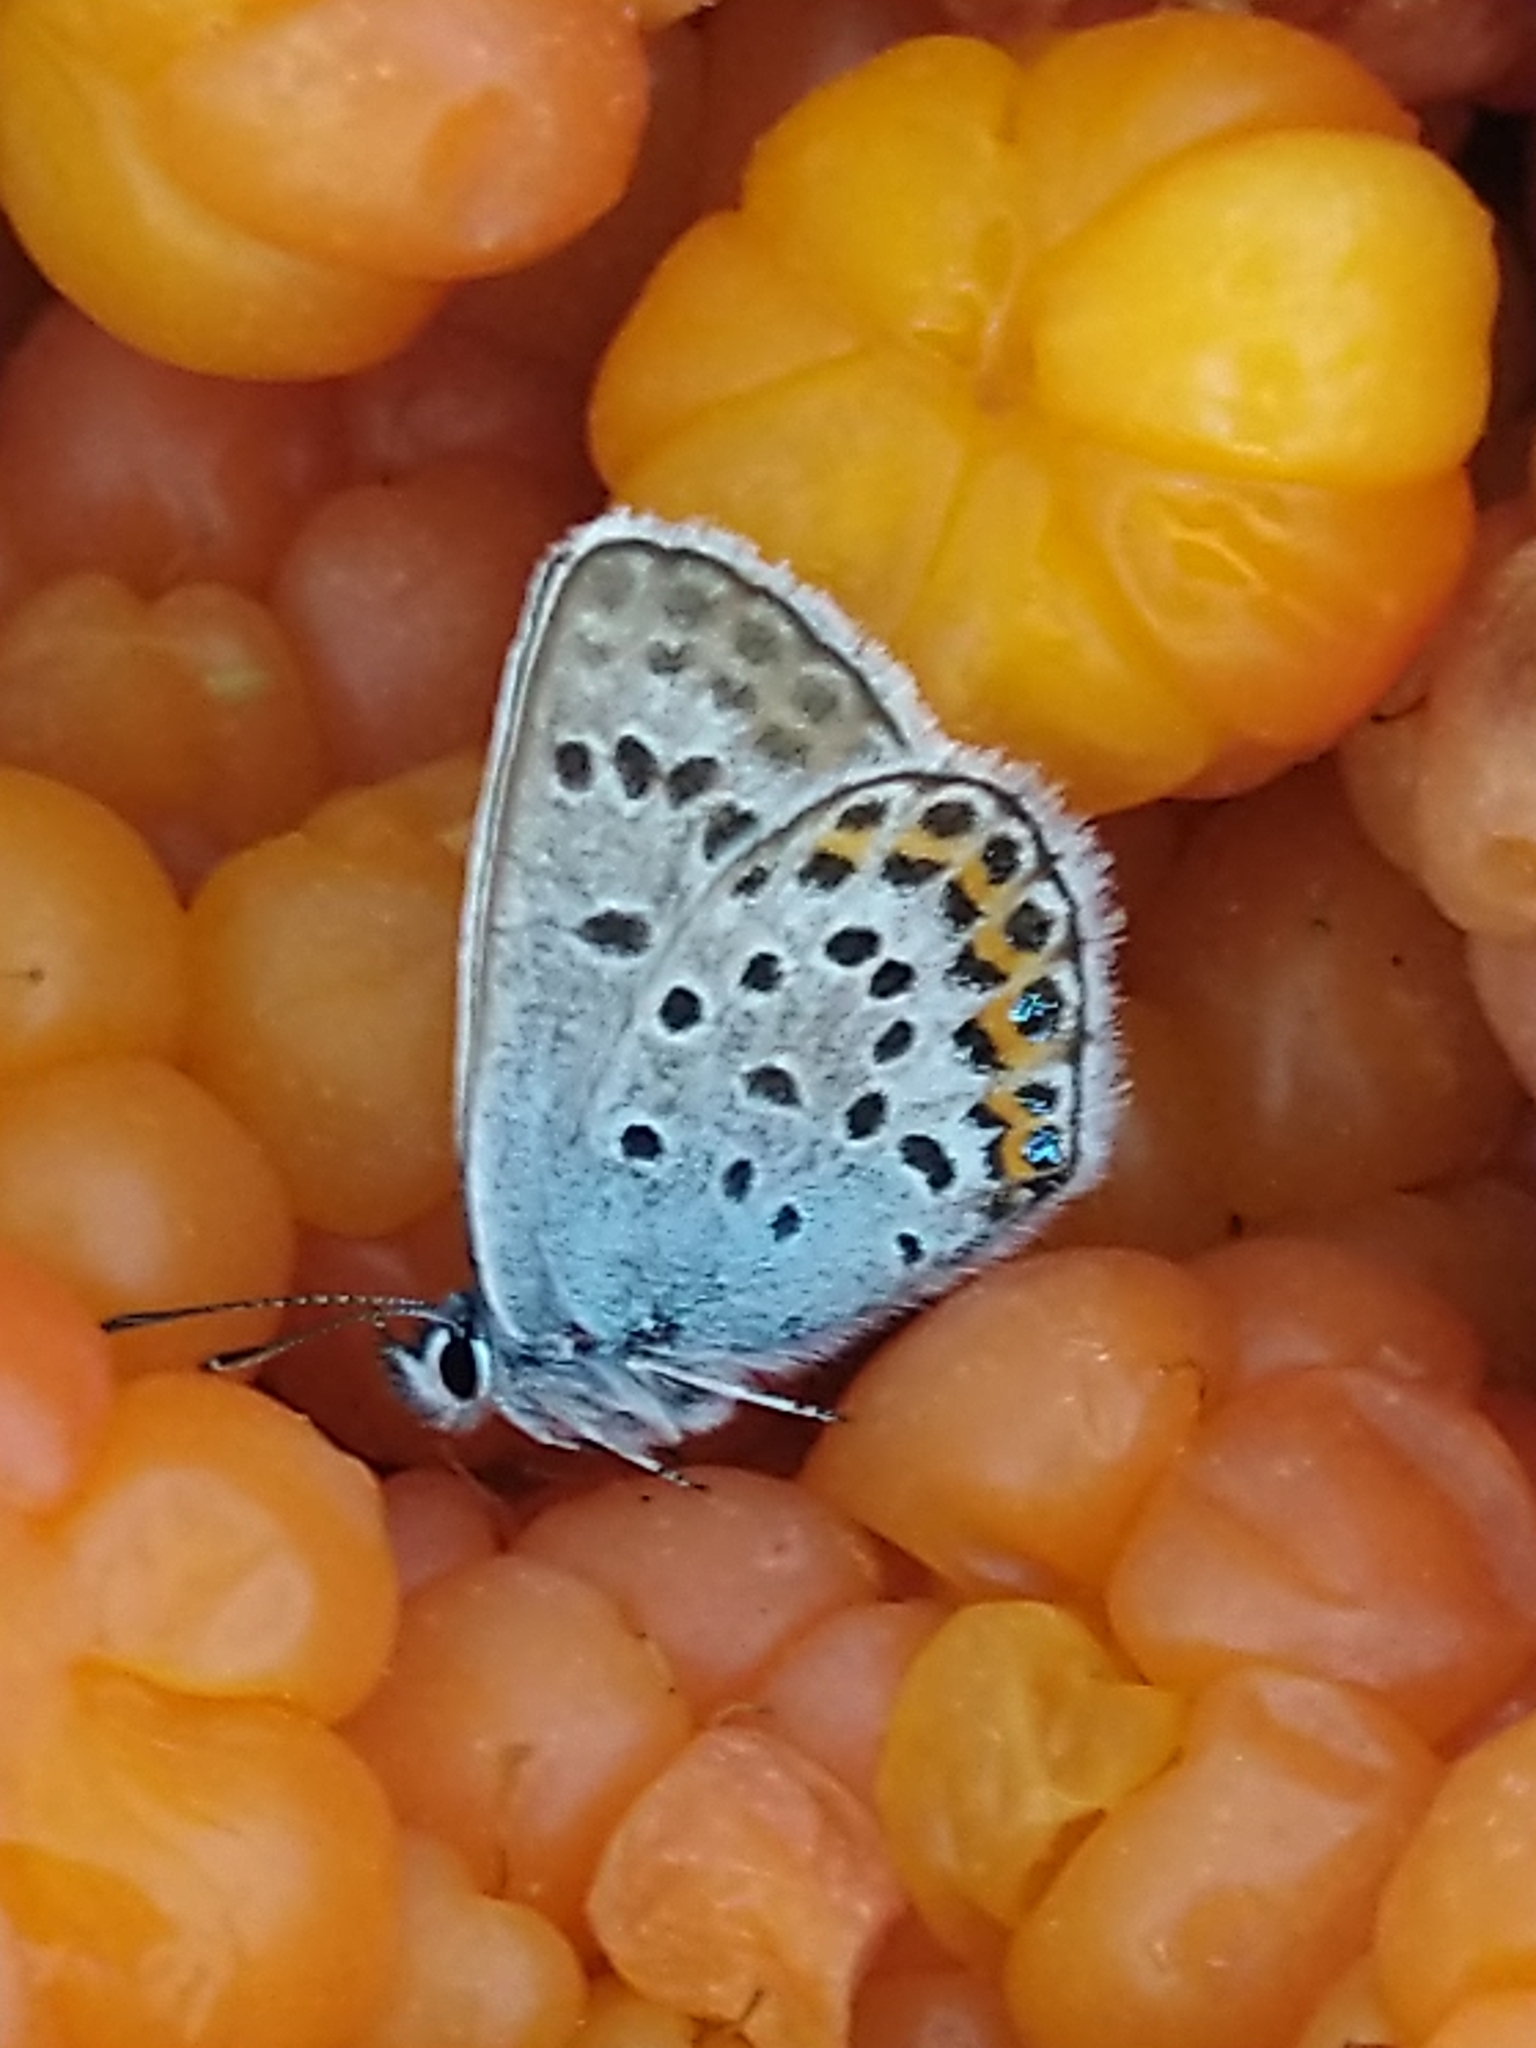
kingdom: Animalia
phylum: Arthropoda
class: Insecta
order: Lepidoptera
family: Lycaenidae
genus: Plebejus
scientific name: Plebejus argus
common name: Silver-studded blue
